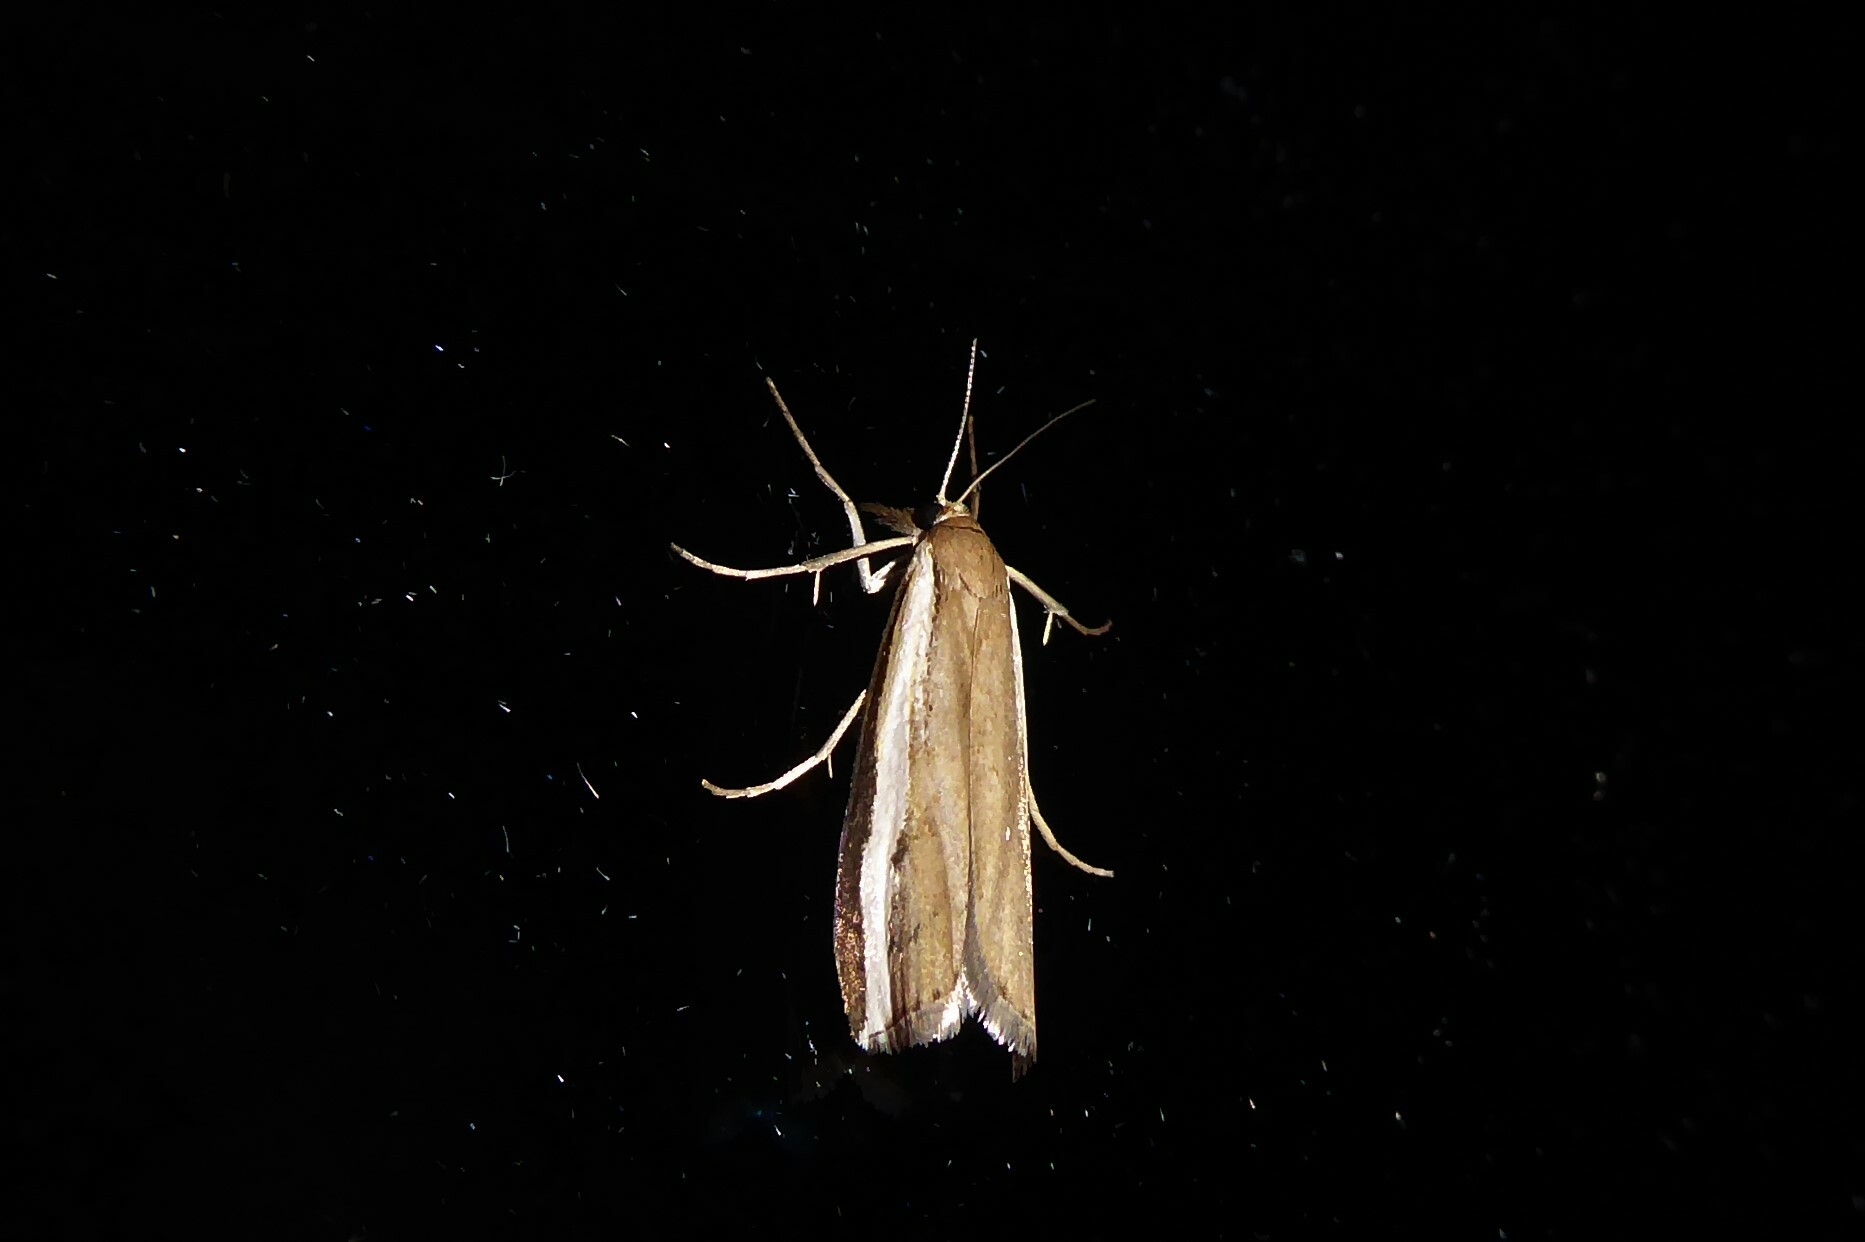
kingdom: Animalia
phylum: Arthropoda
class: Insecta
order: Lepidoptera
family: Crambidae
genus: Orocrambus
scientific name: Orocrambus flexuosellus
